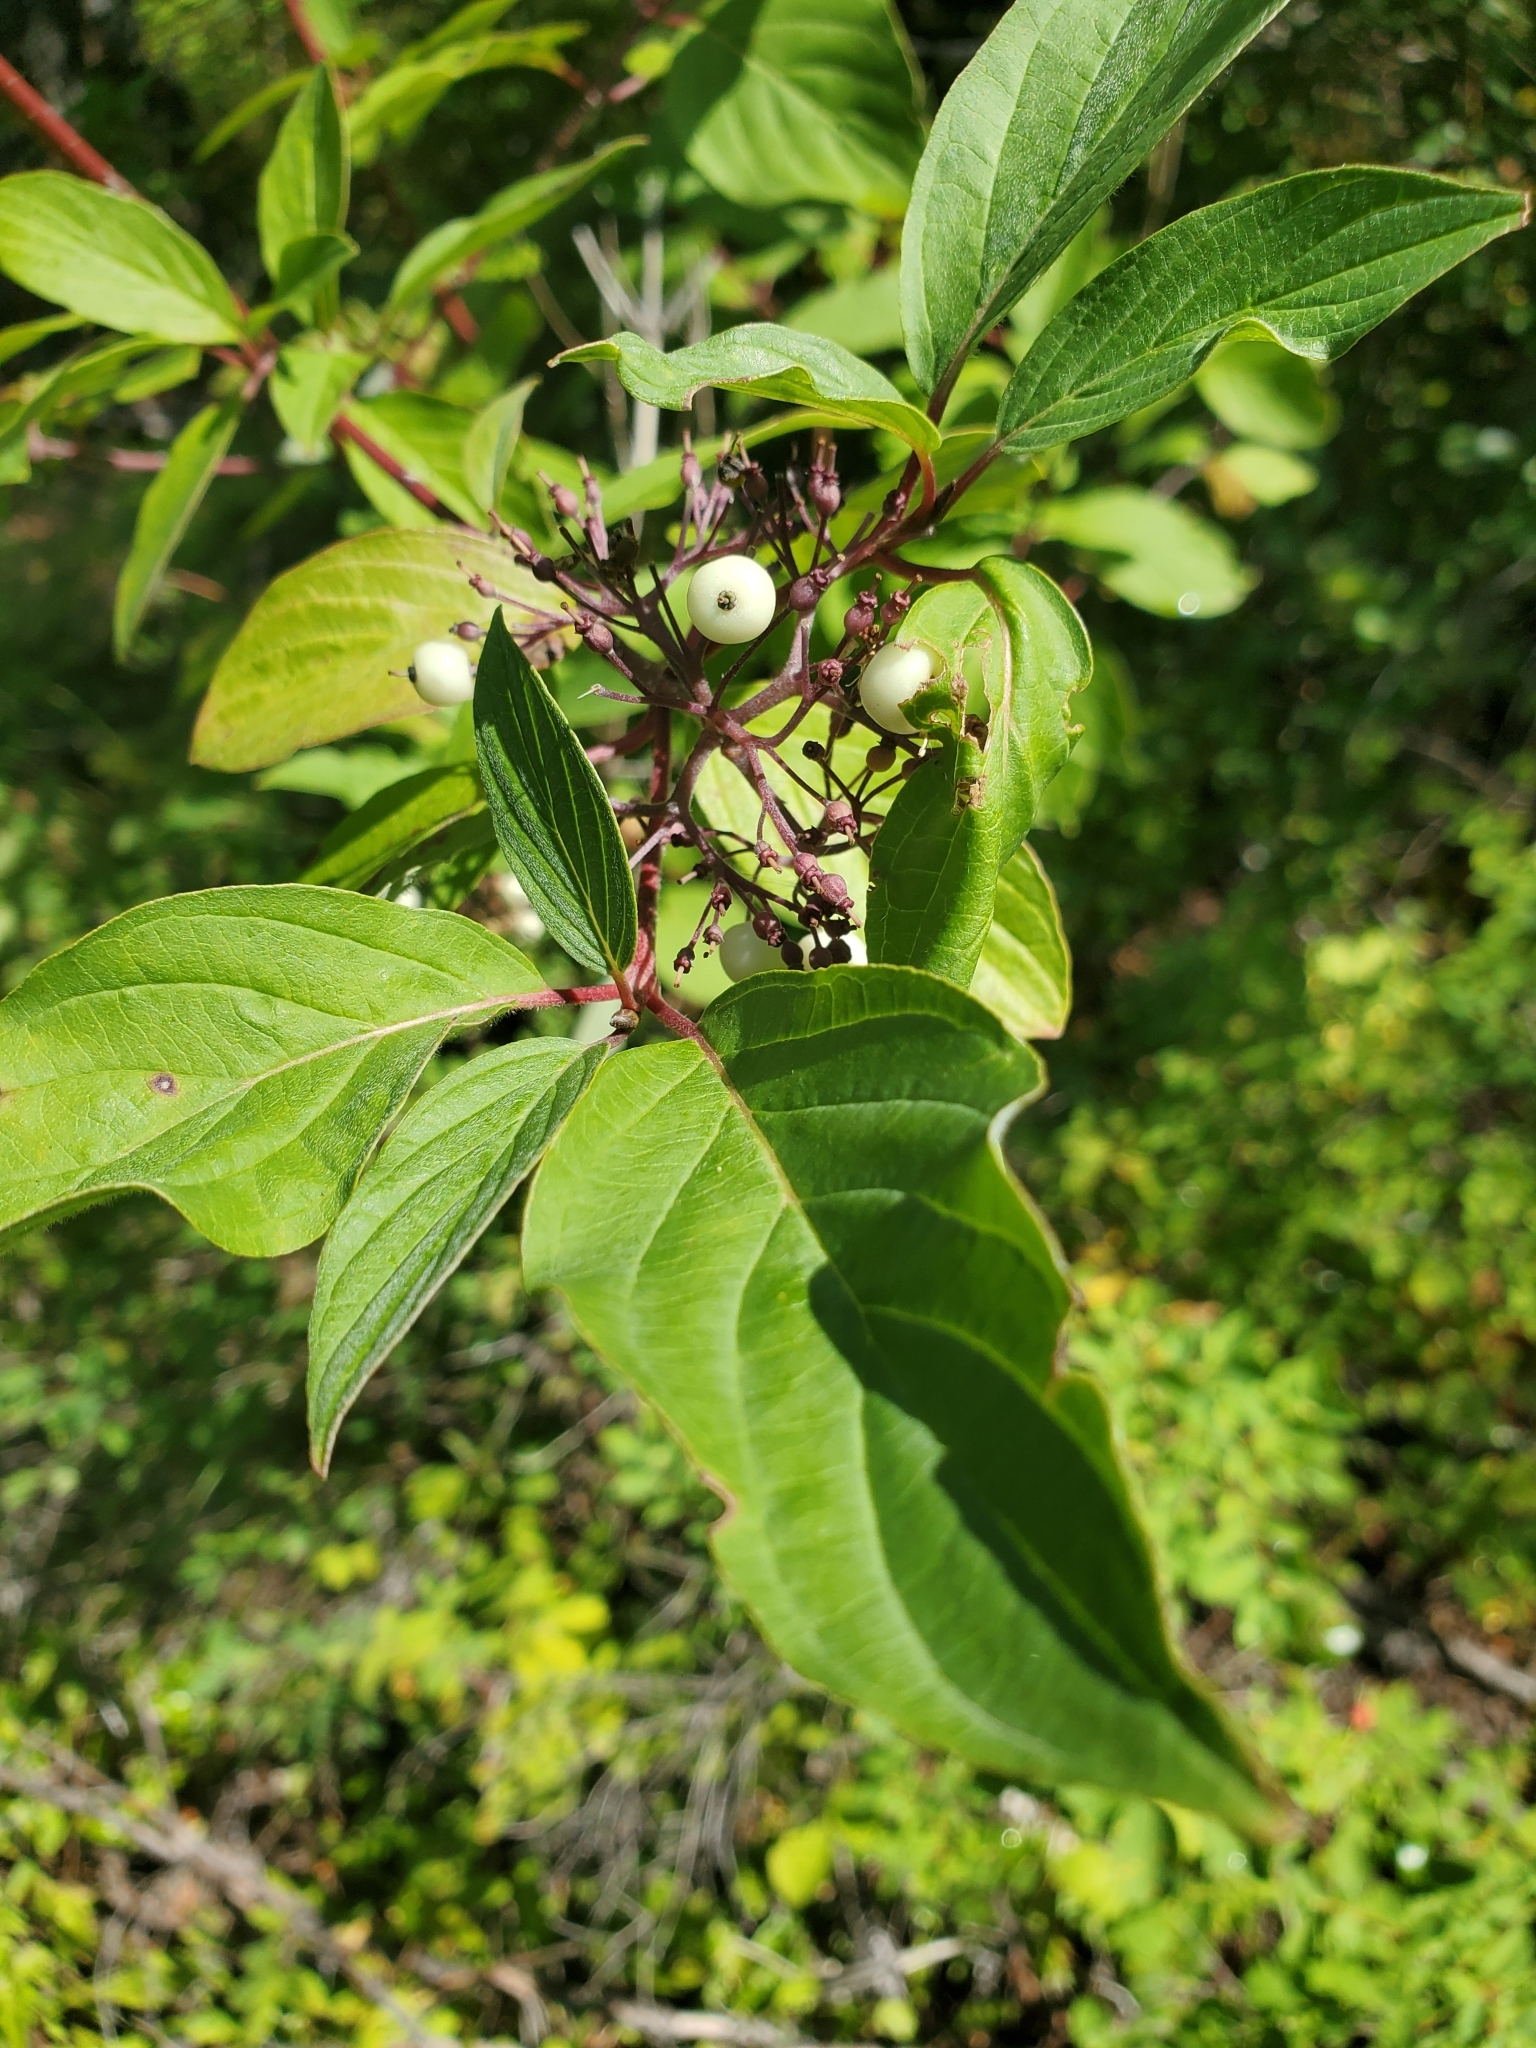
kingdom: Plantae
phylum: Tracheophyta
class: Magnoliopsida
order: Cornales
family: Cornaceae
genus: Cornus
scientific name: Cornus sericea
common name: Red-osier dogwood
